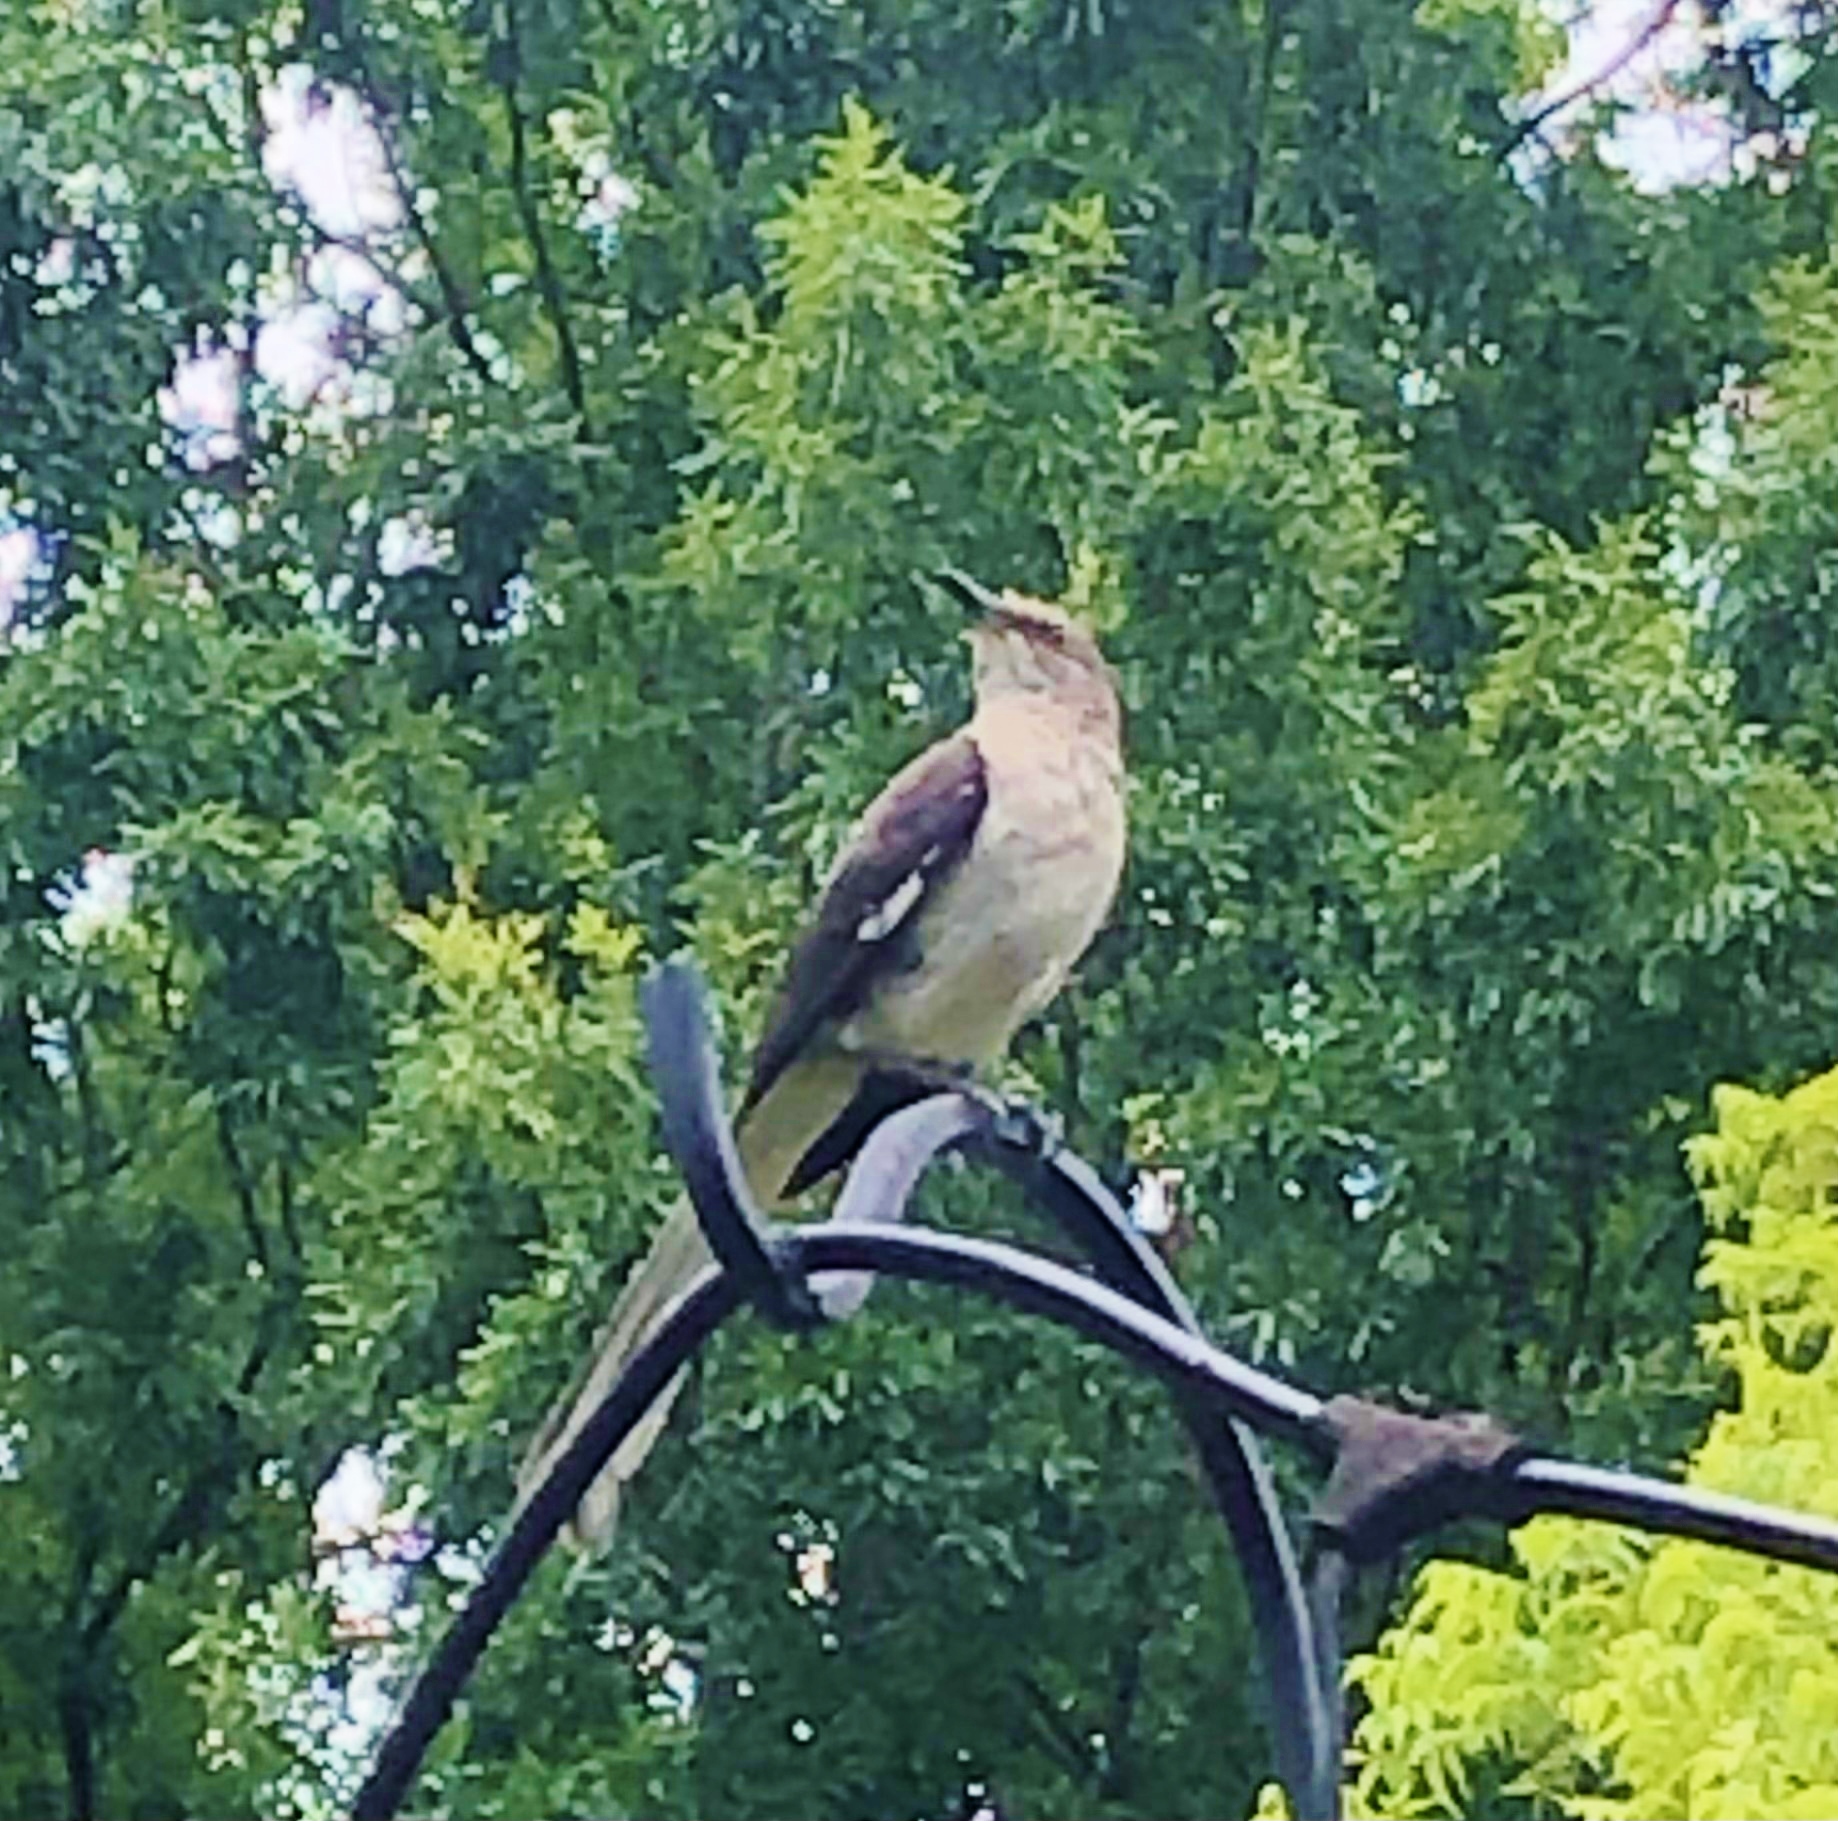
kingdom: Animalia
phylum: Chordata
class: Aves
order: Passeriformes
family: Mimidae
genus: Mimus
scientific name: Mimus polyglottos
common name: Northern mockingbird
